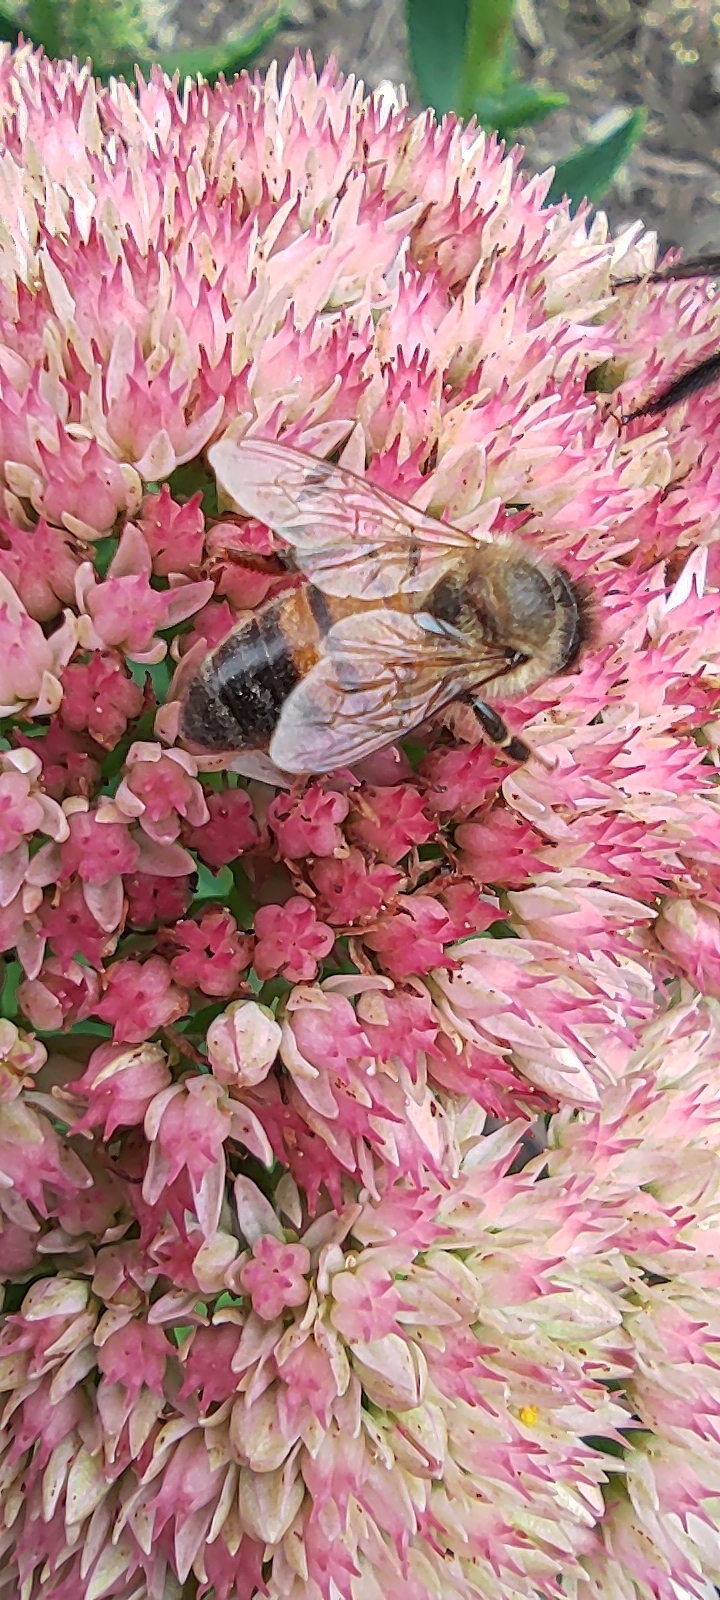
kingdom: Animalia
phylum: Arthropoda
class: Insecta
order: Hymenoptera
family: Apidae
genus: Apis
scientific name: Apis mellifera
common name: Honey bee
